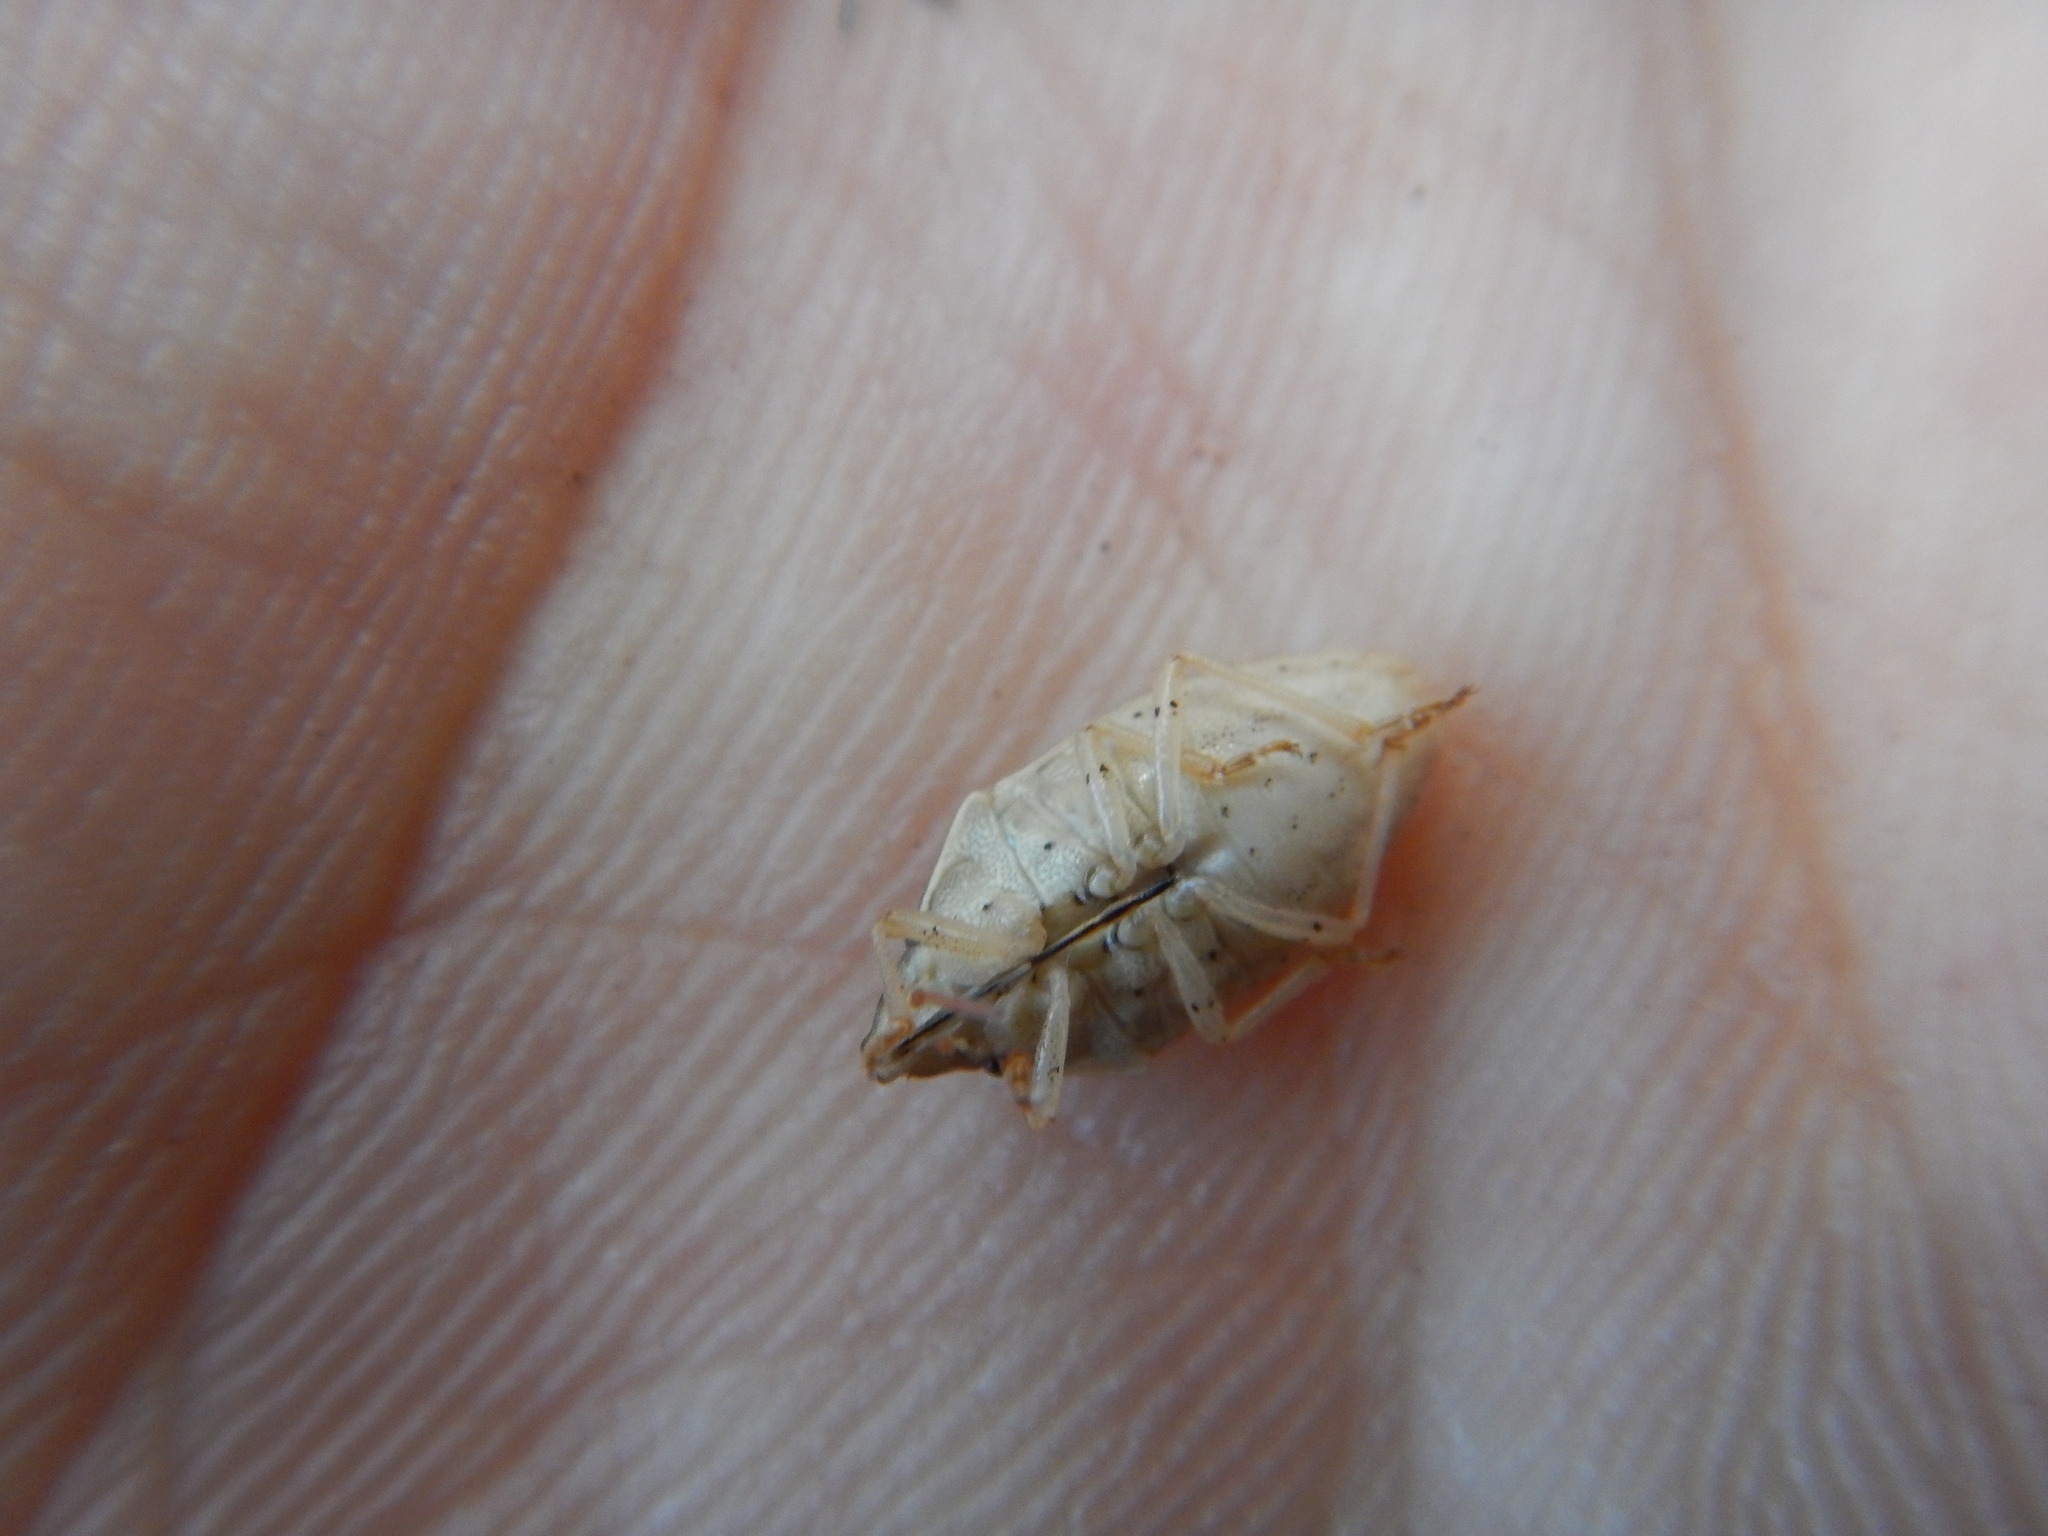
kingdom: Animalia
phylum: Arthropoda
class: Insecta
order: Hemiptera
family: Pentatomidae
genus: Aelia
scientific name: Aelia acuminata
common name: Bishop's mitre
